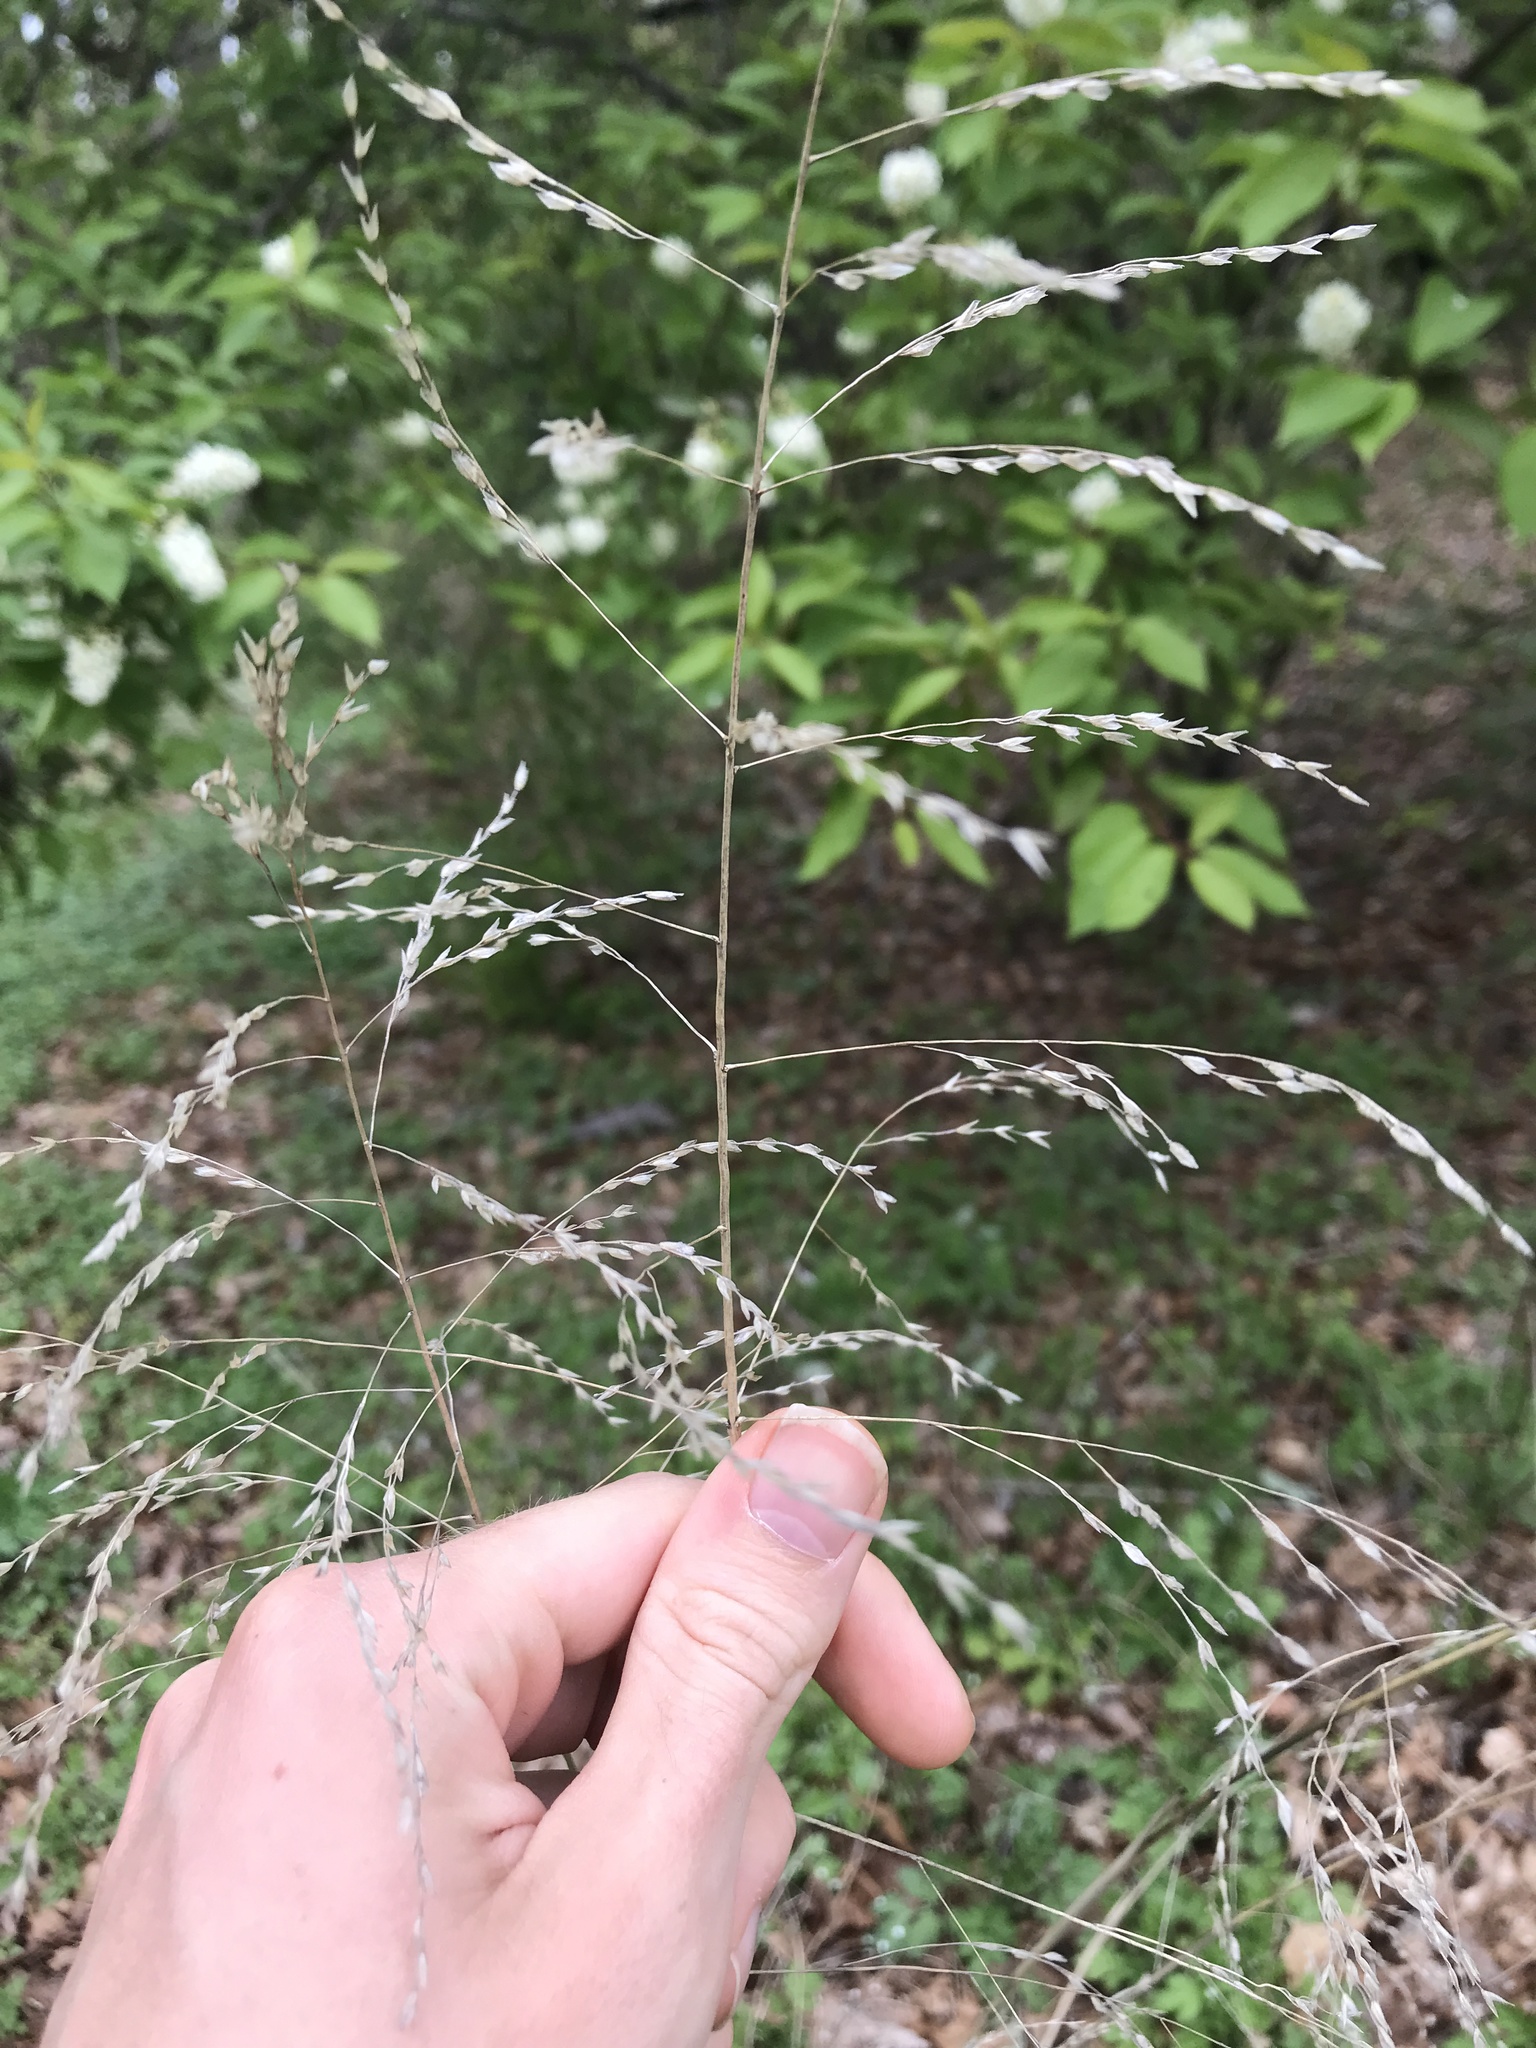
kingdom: Plantae
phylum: Tracheophyta
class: Liliopsida
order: Poales
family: Poaceae
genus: Tridens
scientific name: Tridens flavus
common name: Purpletop
